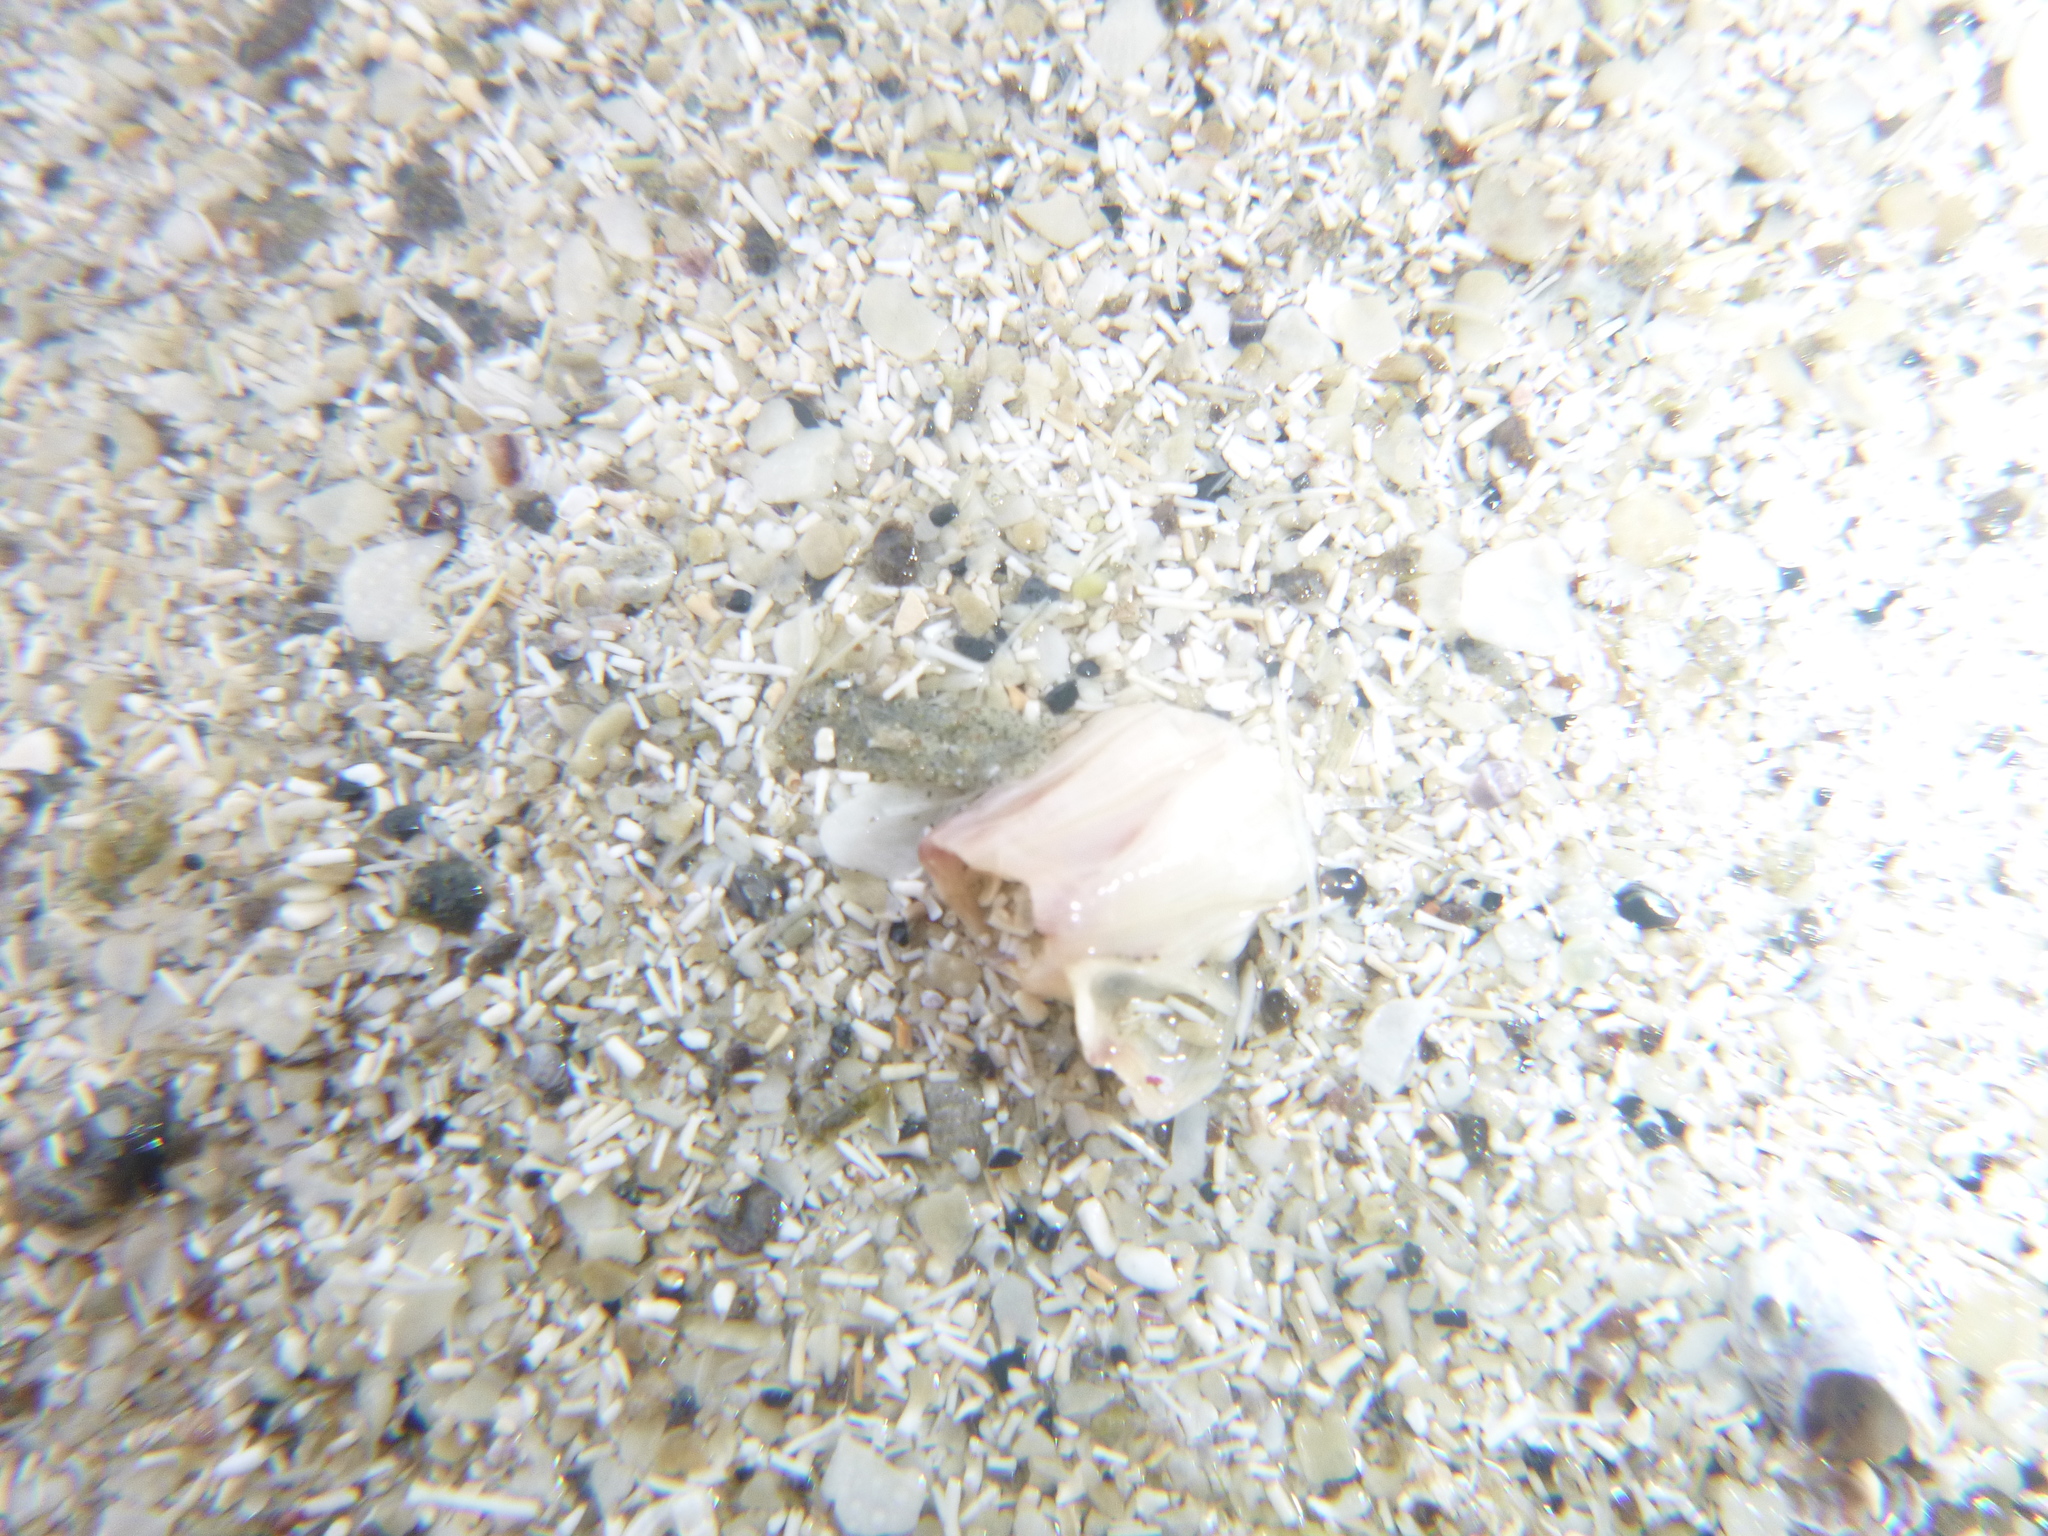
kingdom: Animalia
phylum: Arthropoda
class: Maxillopoda
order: Sessilia
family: Balanidae
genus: Notomegabalanus
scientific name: Notomegabalanus decorus
